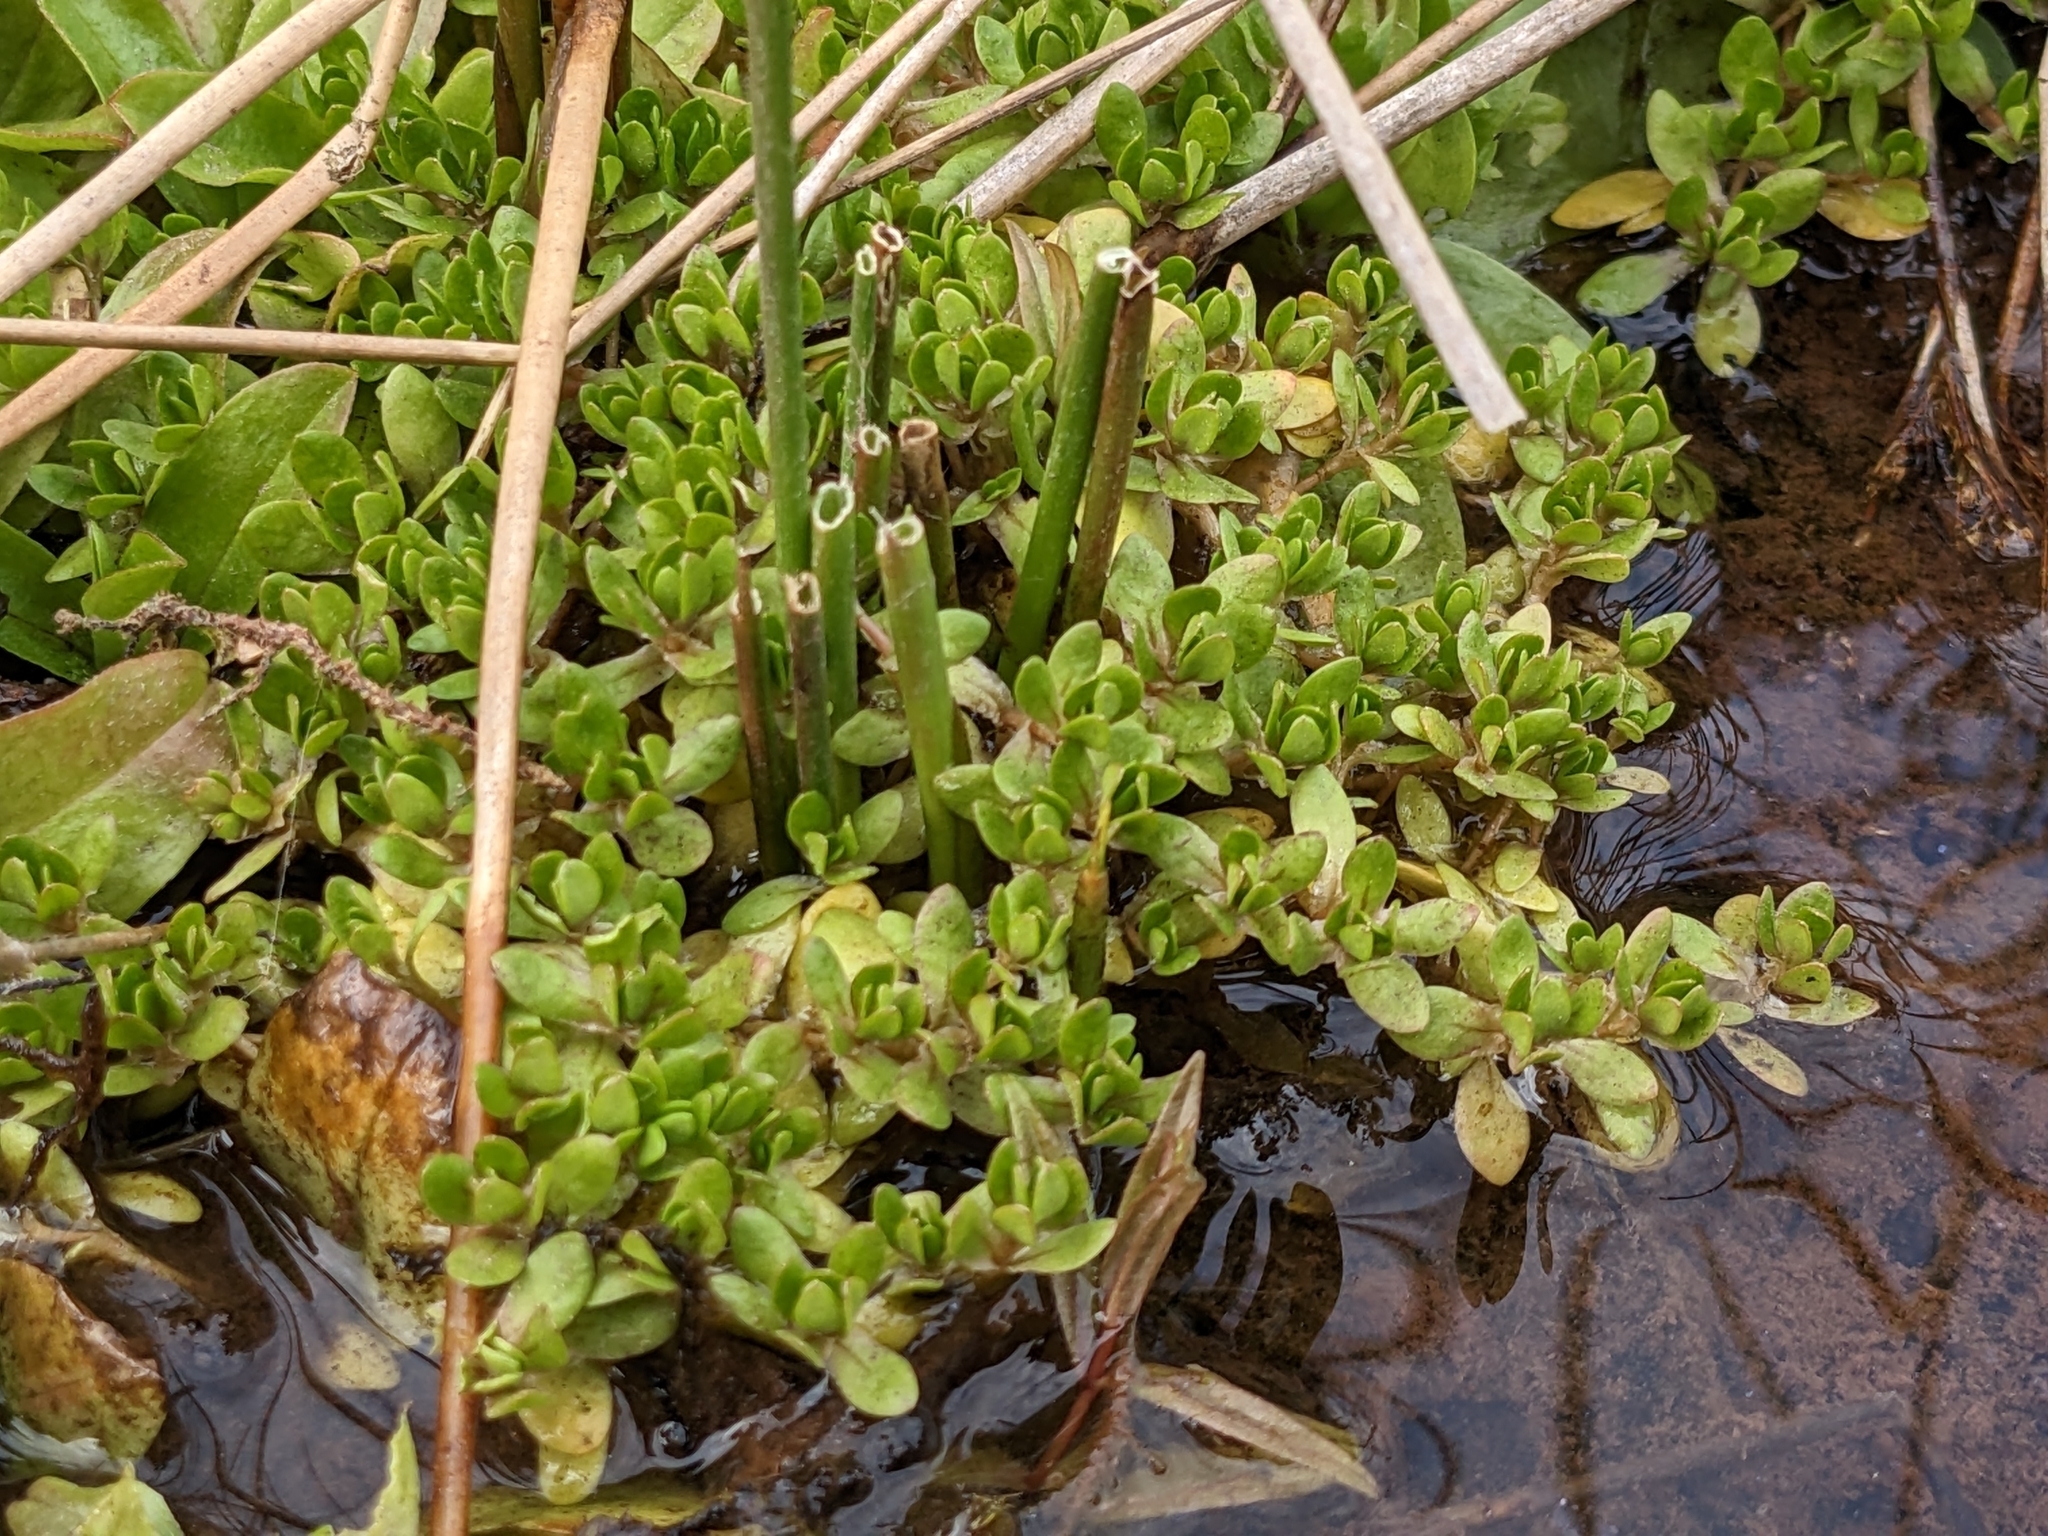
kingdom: Plantae
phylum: Tracheophyta
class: Magnoliopsida
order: Caryophyllales
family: Montiaceae
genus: Montia
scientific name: Montia fontana
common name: Blinks
